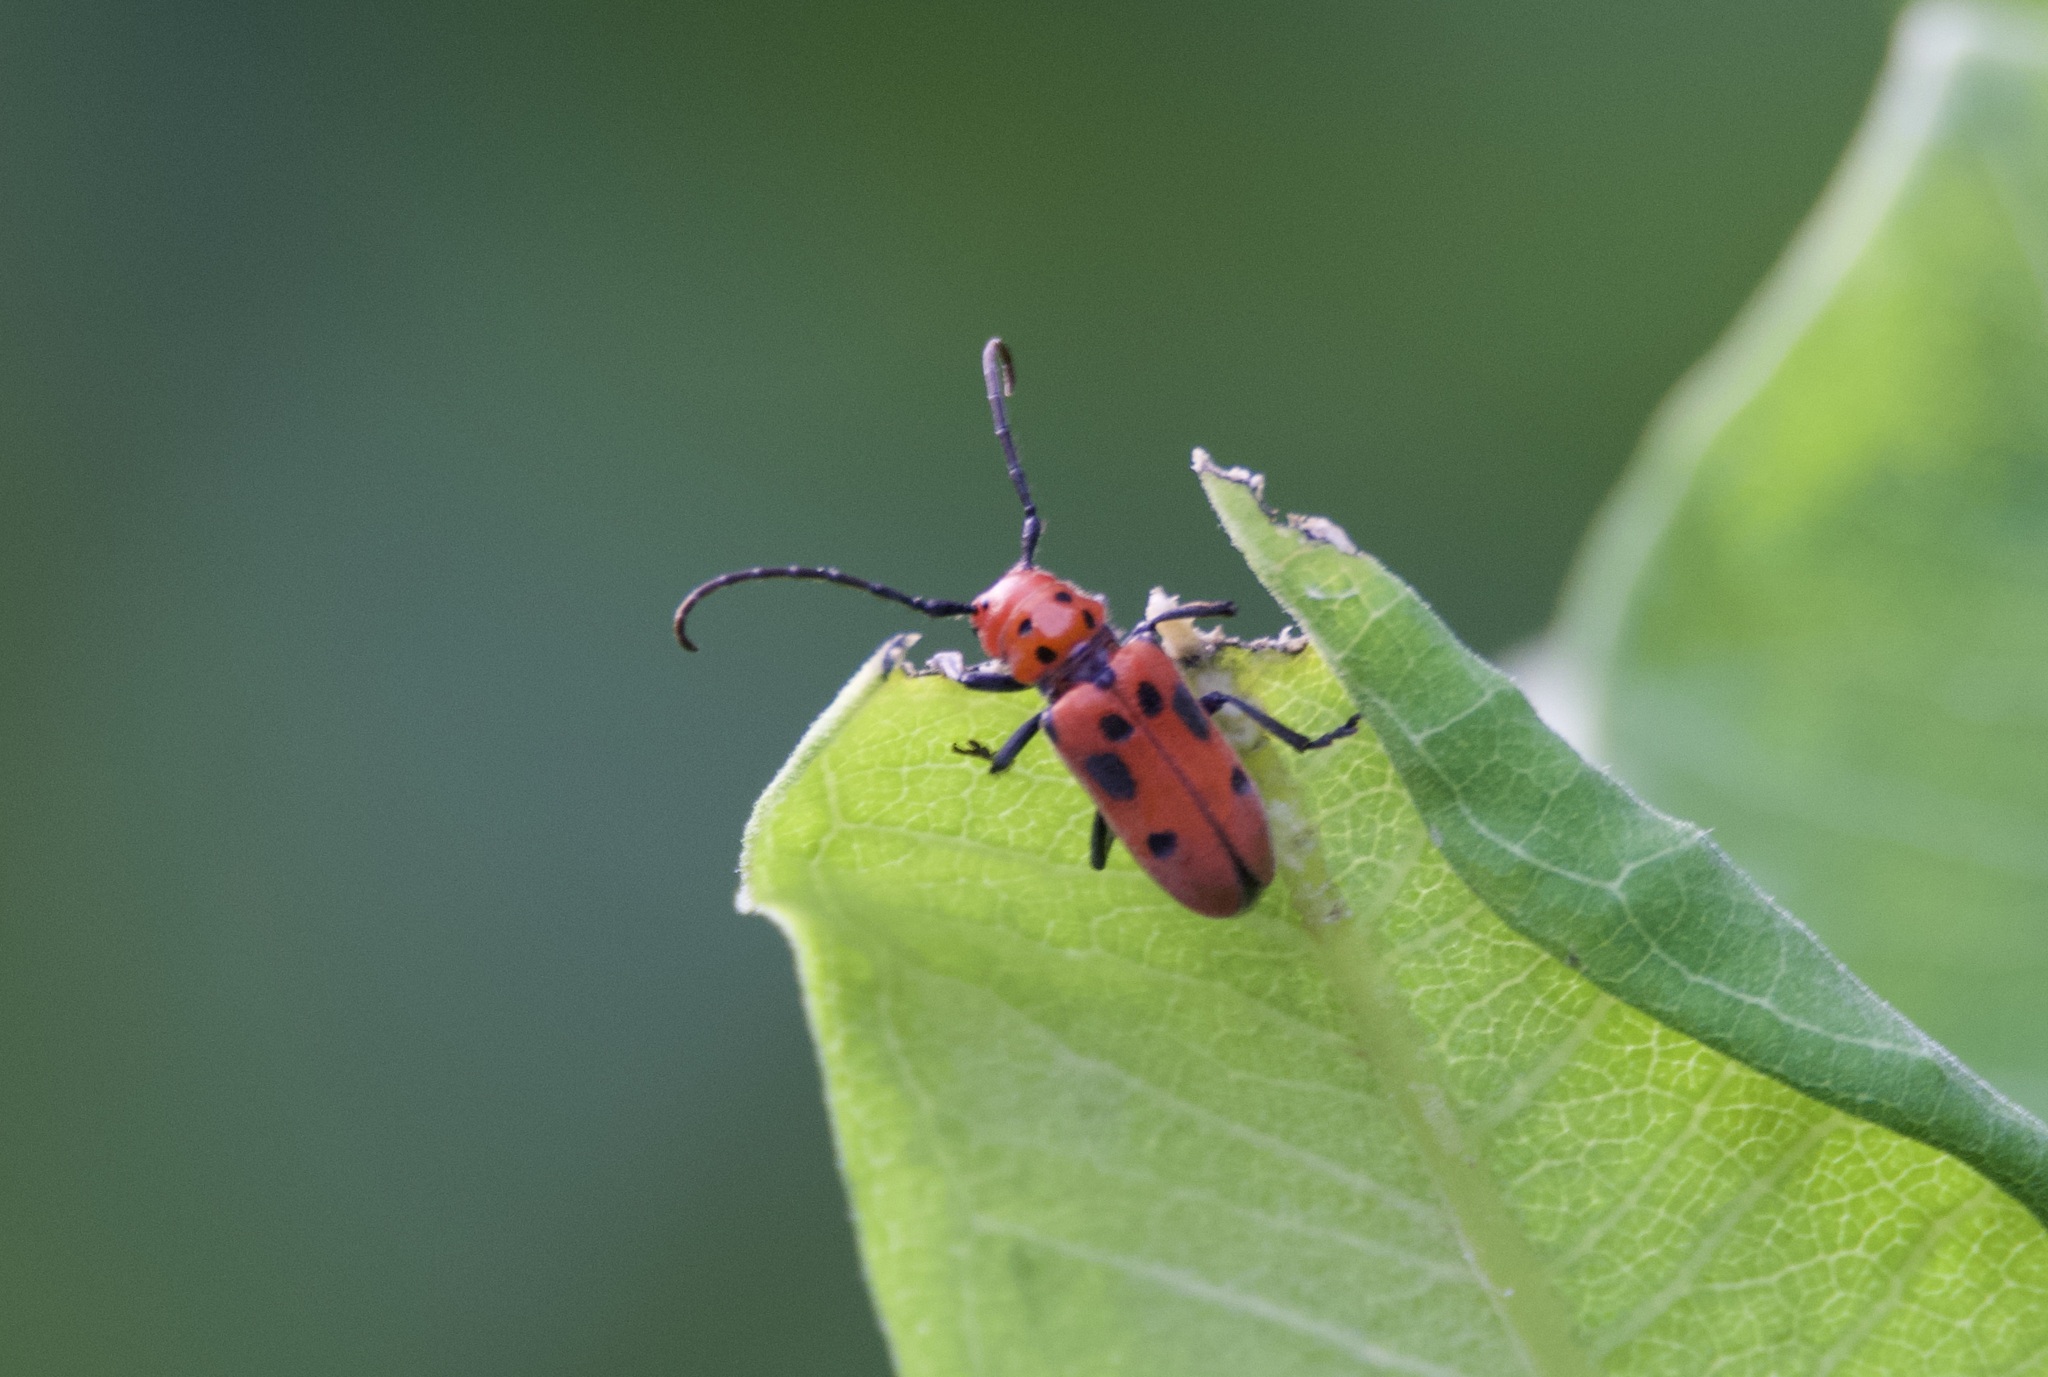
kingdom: Animalia
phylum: Arthropoda
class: Insecta
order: Coleoptera
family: Cerambycidae
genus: Tetraopes
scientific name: Tetraopes tetrophthalmus
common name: Red milkweed beetle
